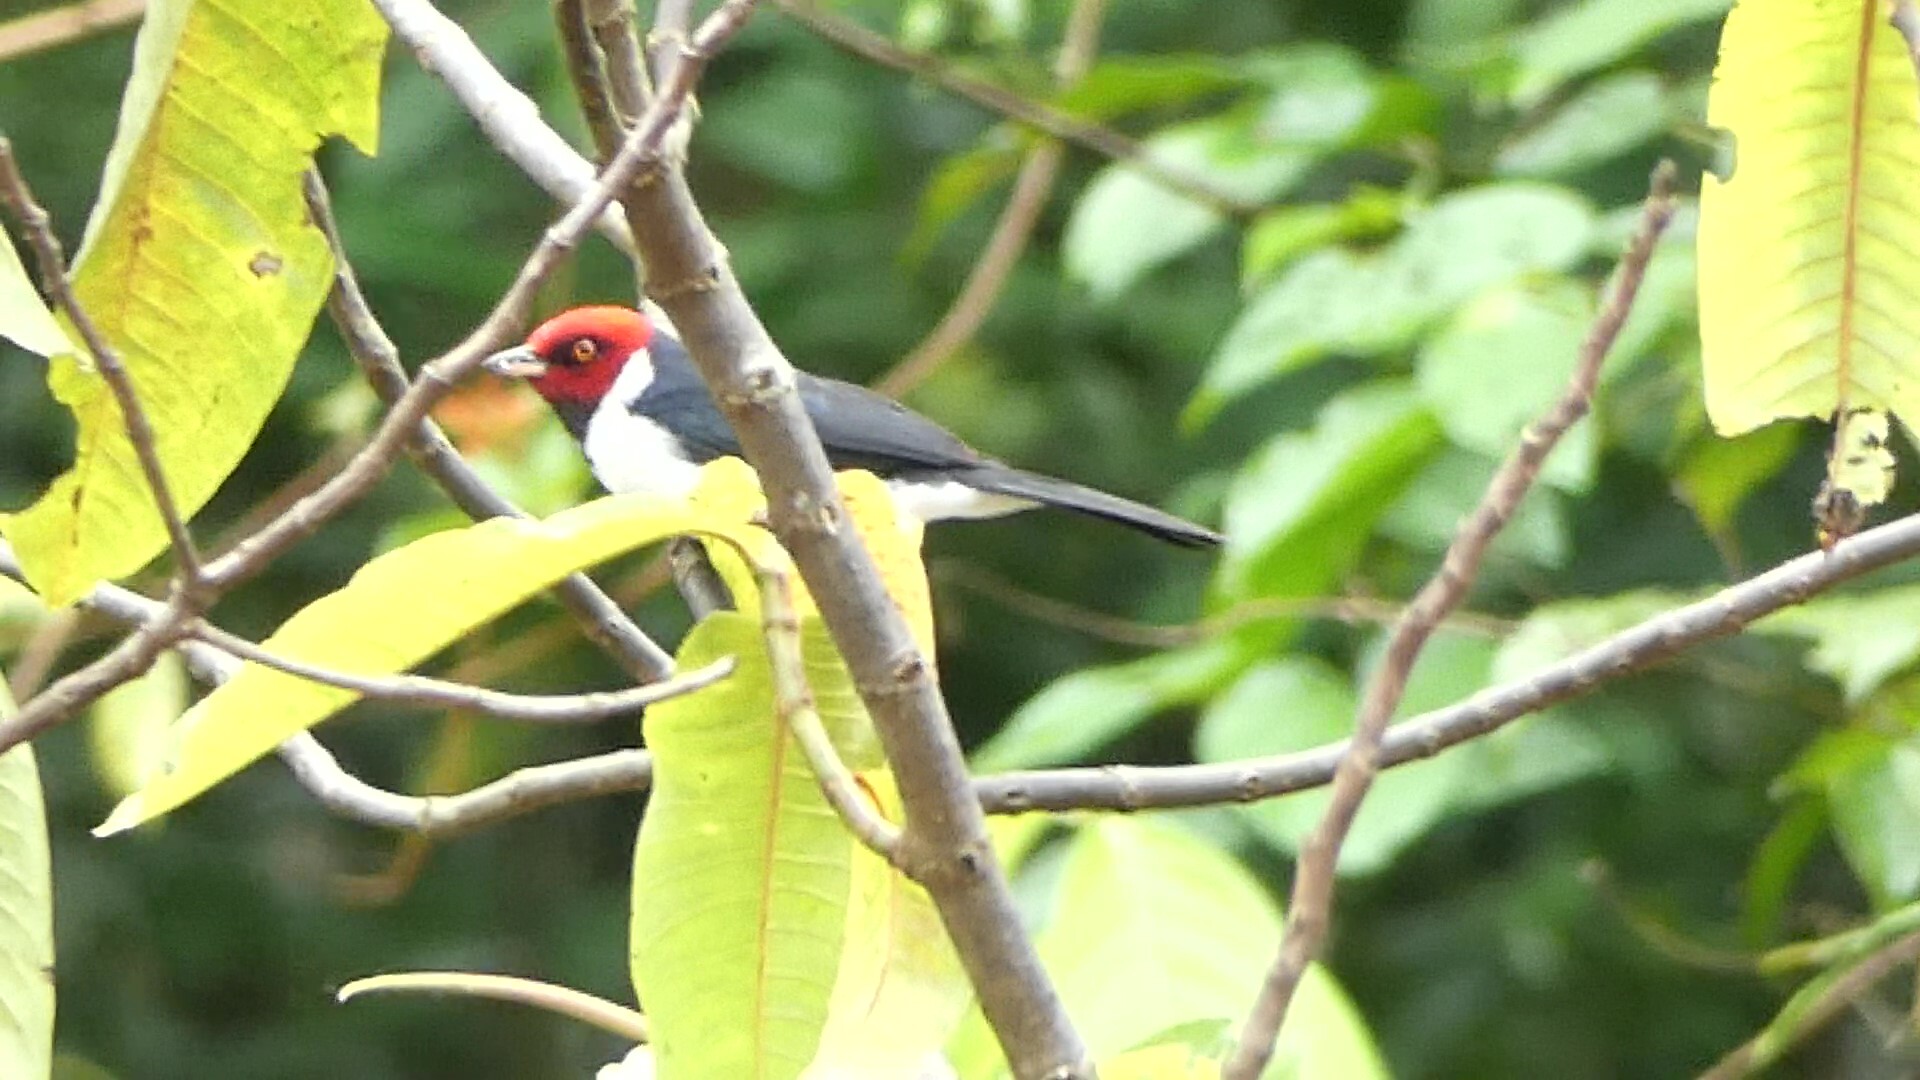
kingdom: Animalia
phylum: Chordata
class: Aves
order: Passeriformes
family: Thraupidae
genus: Paroaria
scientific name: Paroaria gularis
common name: Red-capped cardinal
